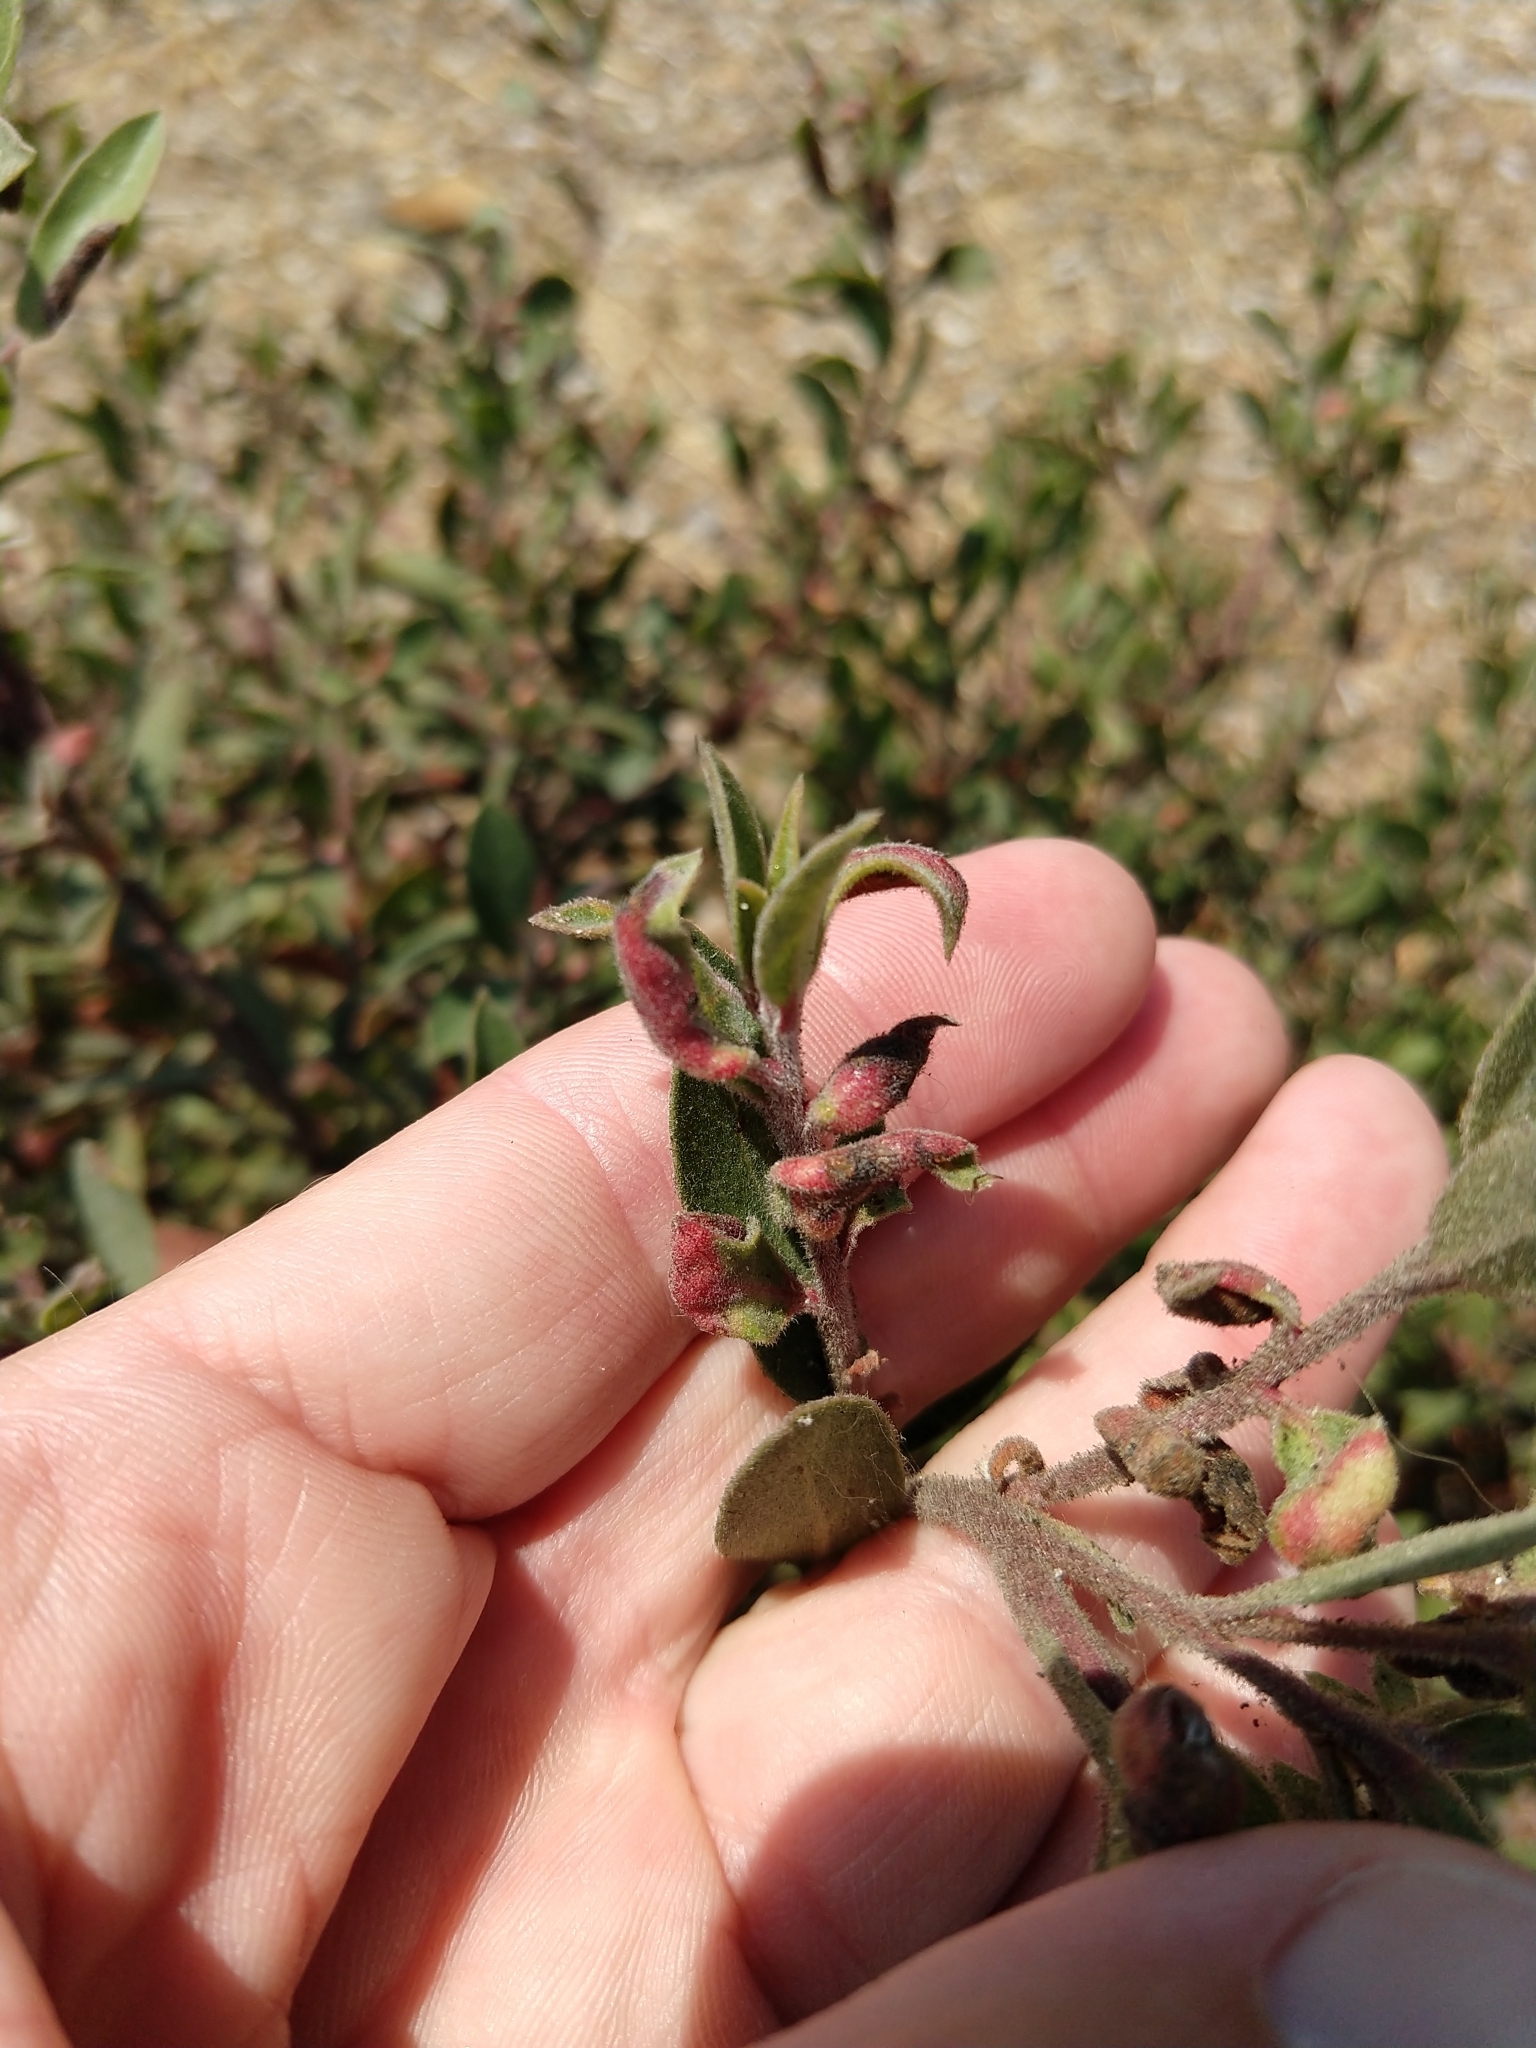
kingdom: Animalia
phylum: Arthropoda
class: Insecta
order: Hemiptera
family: Aphididae
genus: Tamalia
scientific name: Tamalia coweni
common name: Manzanita leafgall aphid
